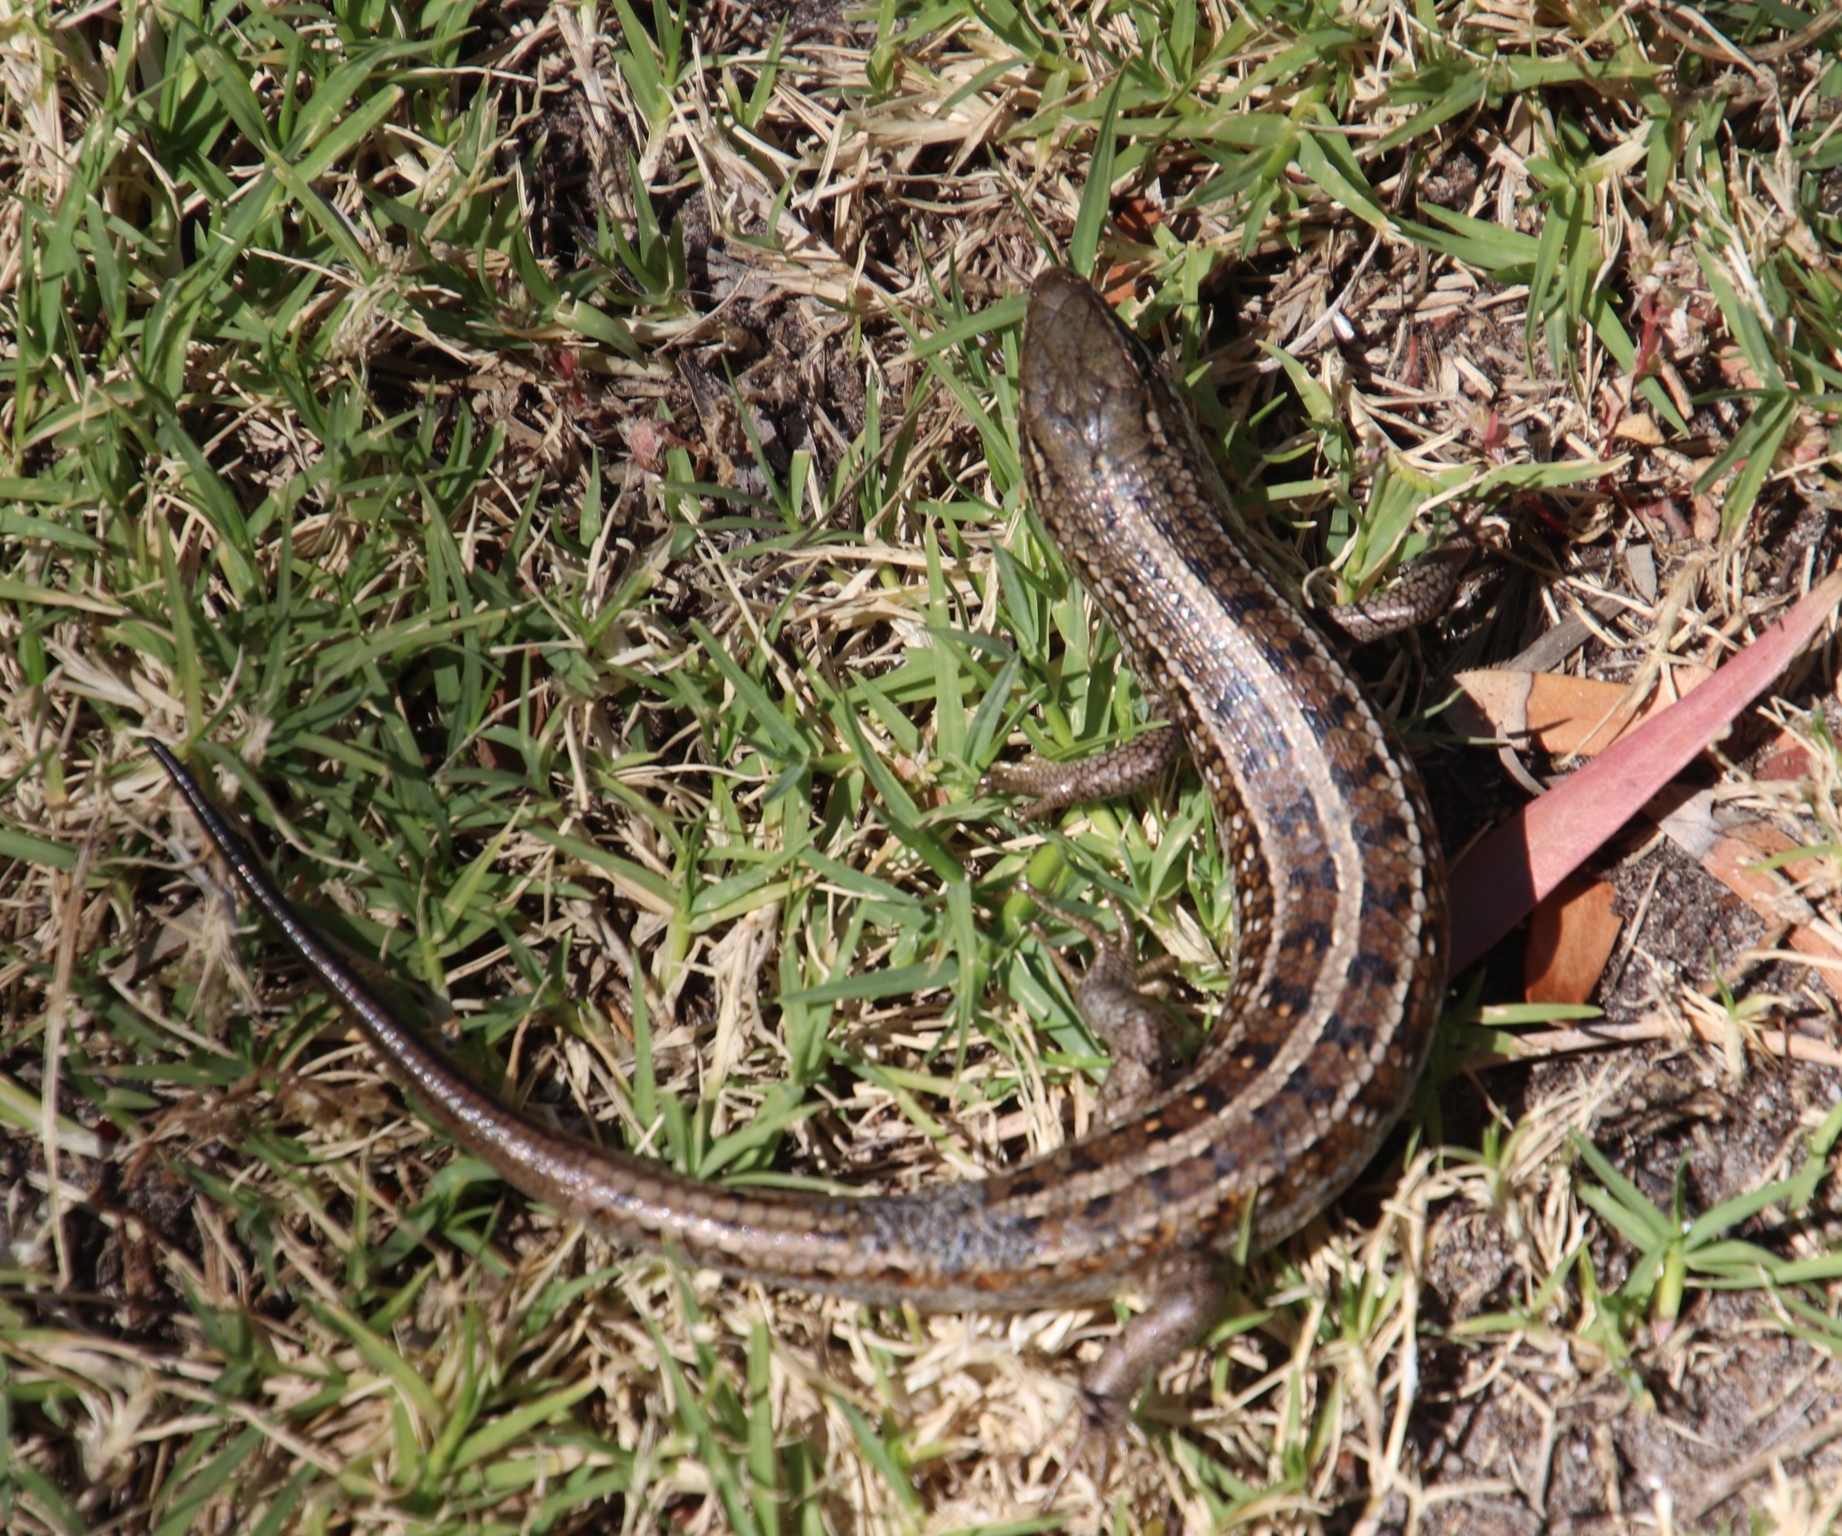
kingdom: Animalia
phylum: Chordata
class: Squamata
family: Scincidae
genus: Trachylepis
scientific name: Trachylepis capensis
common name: Cape skink
